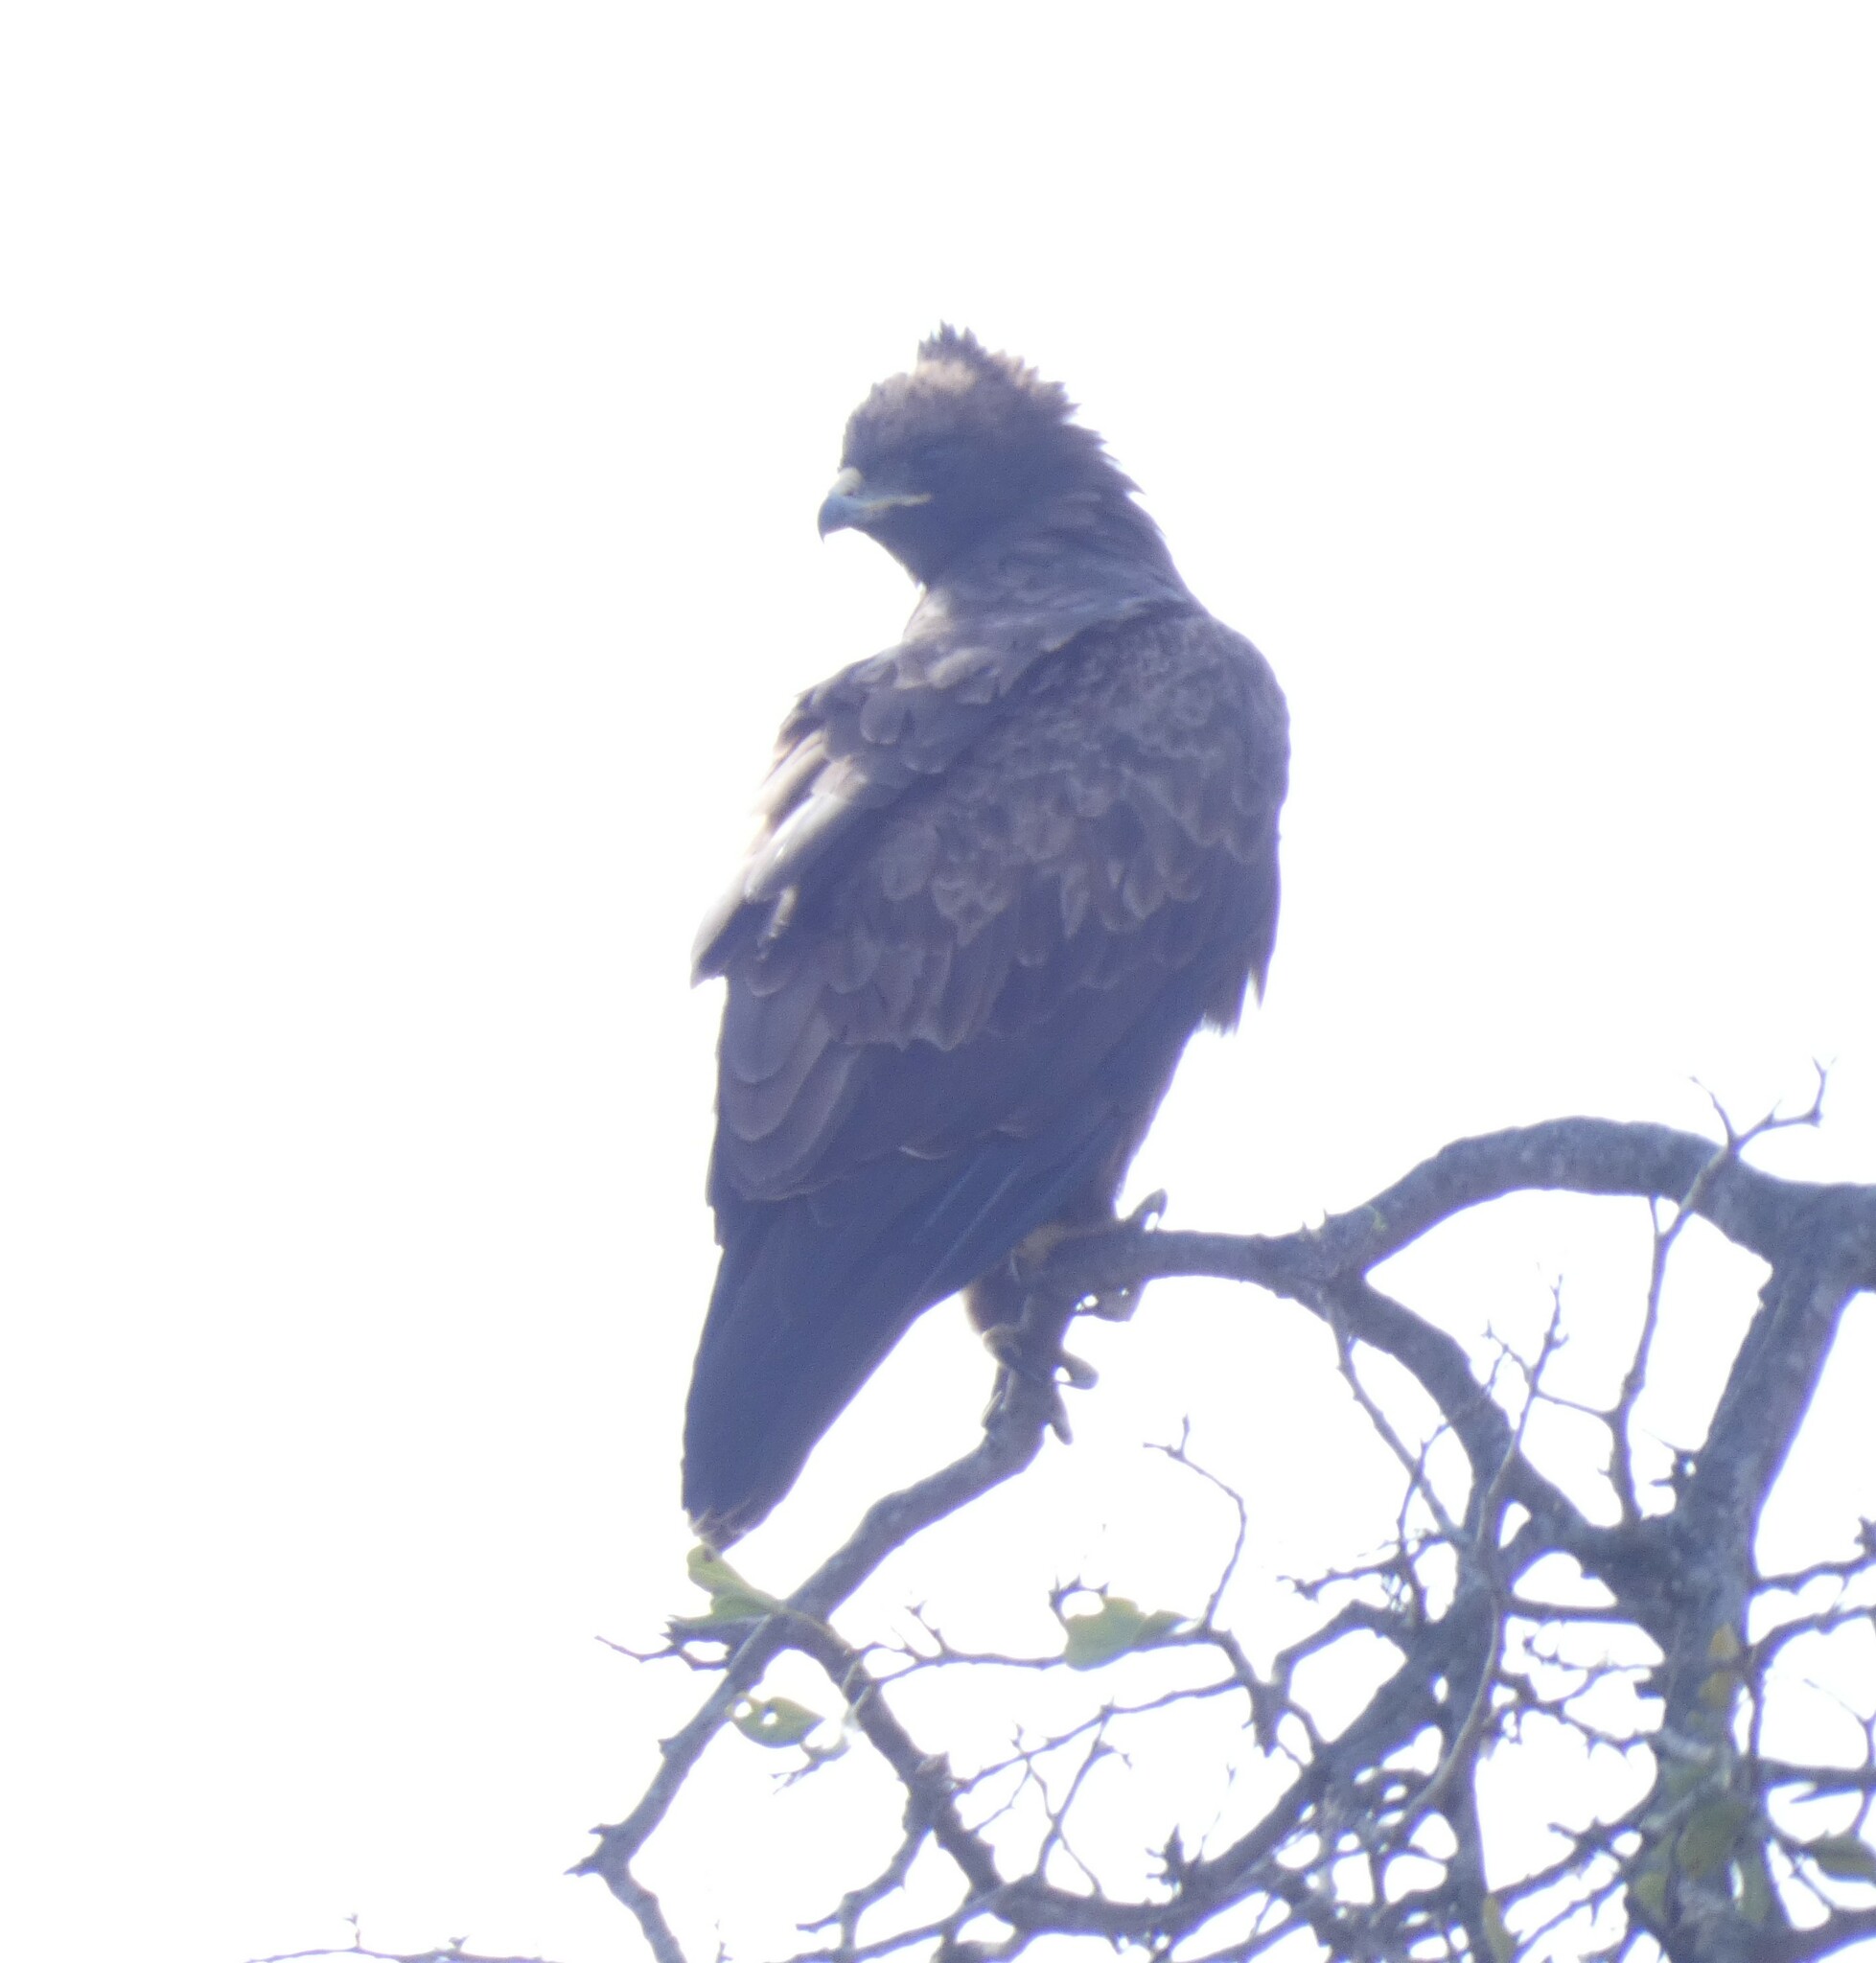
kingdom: Animalia
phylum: Chordata
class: Aves
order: Accipitriformes
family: Accipitridae
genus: Hieraaetus
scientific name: Hieraaetus wahlbergi
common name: Wahlberg's eagle
